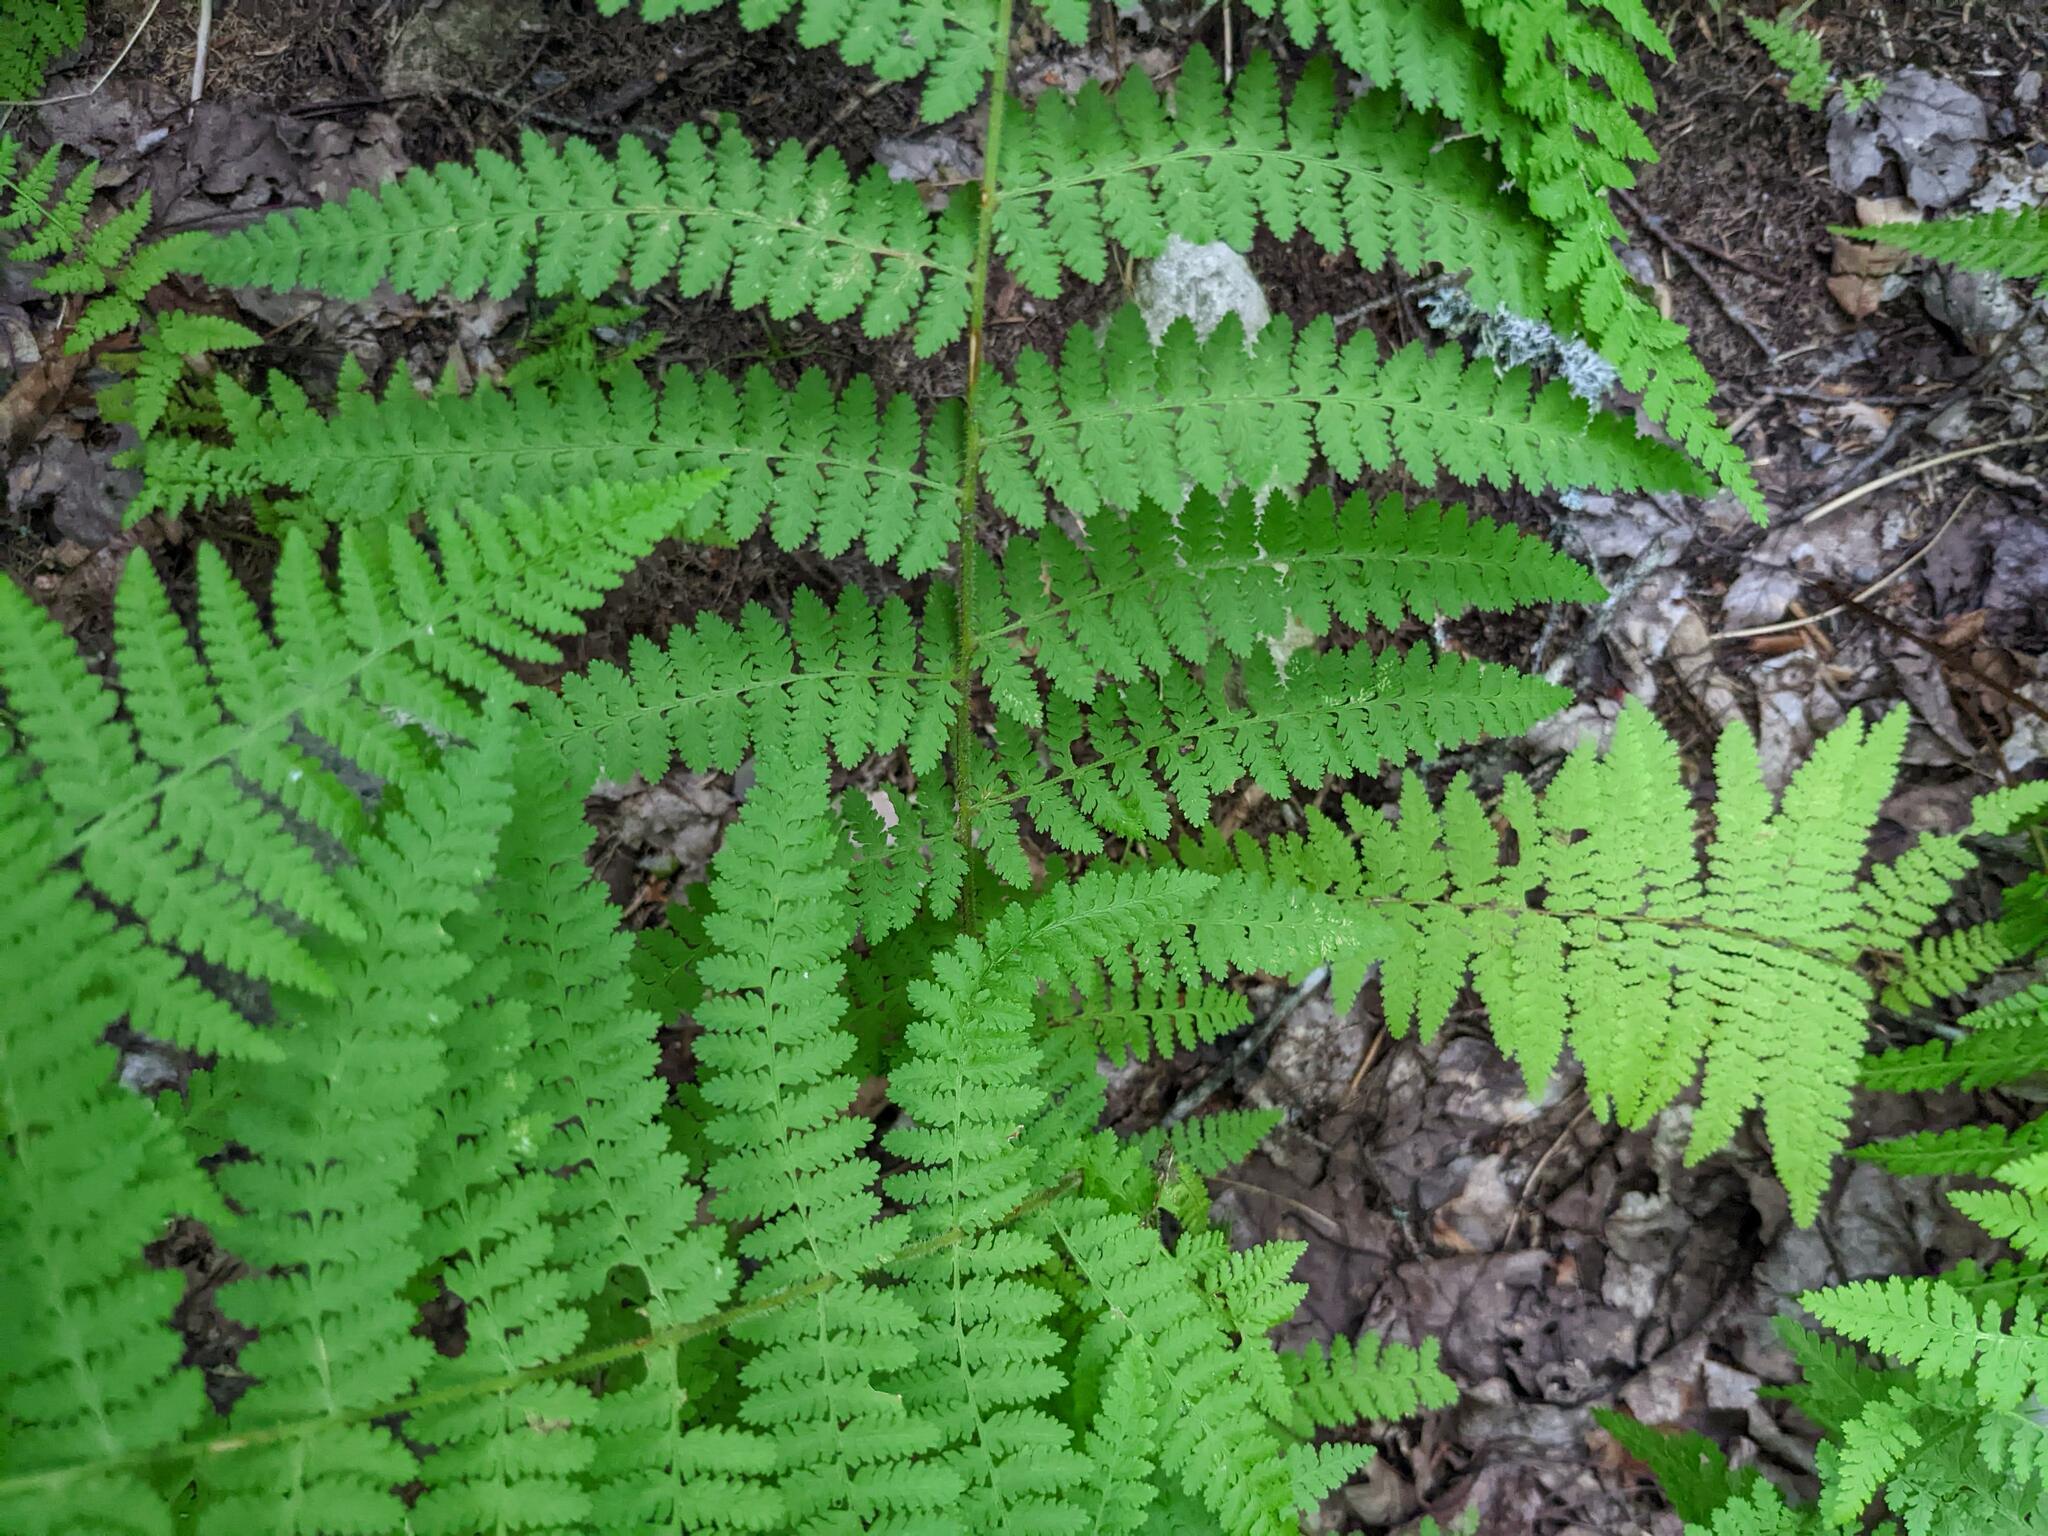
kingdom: Plantae
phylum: Tracheophyta
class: Polypodiopsida
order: Polypodiales
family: Dennstaedtiaceae
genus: Sitobolium
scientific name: Sitobolium punctilobum
